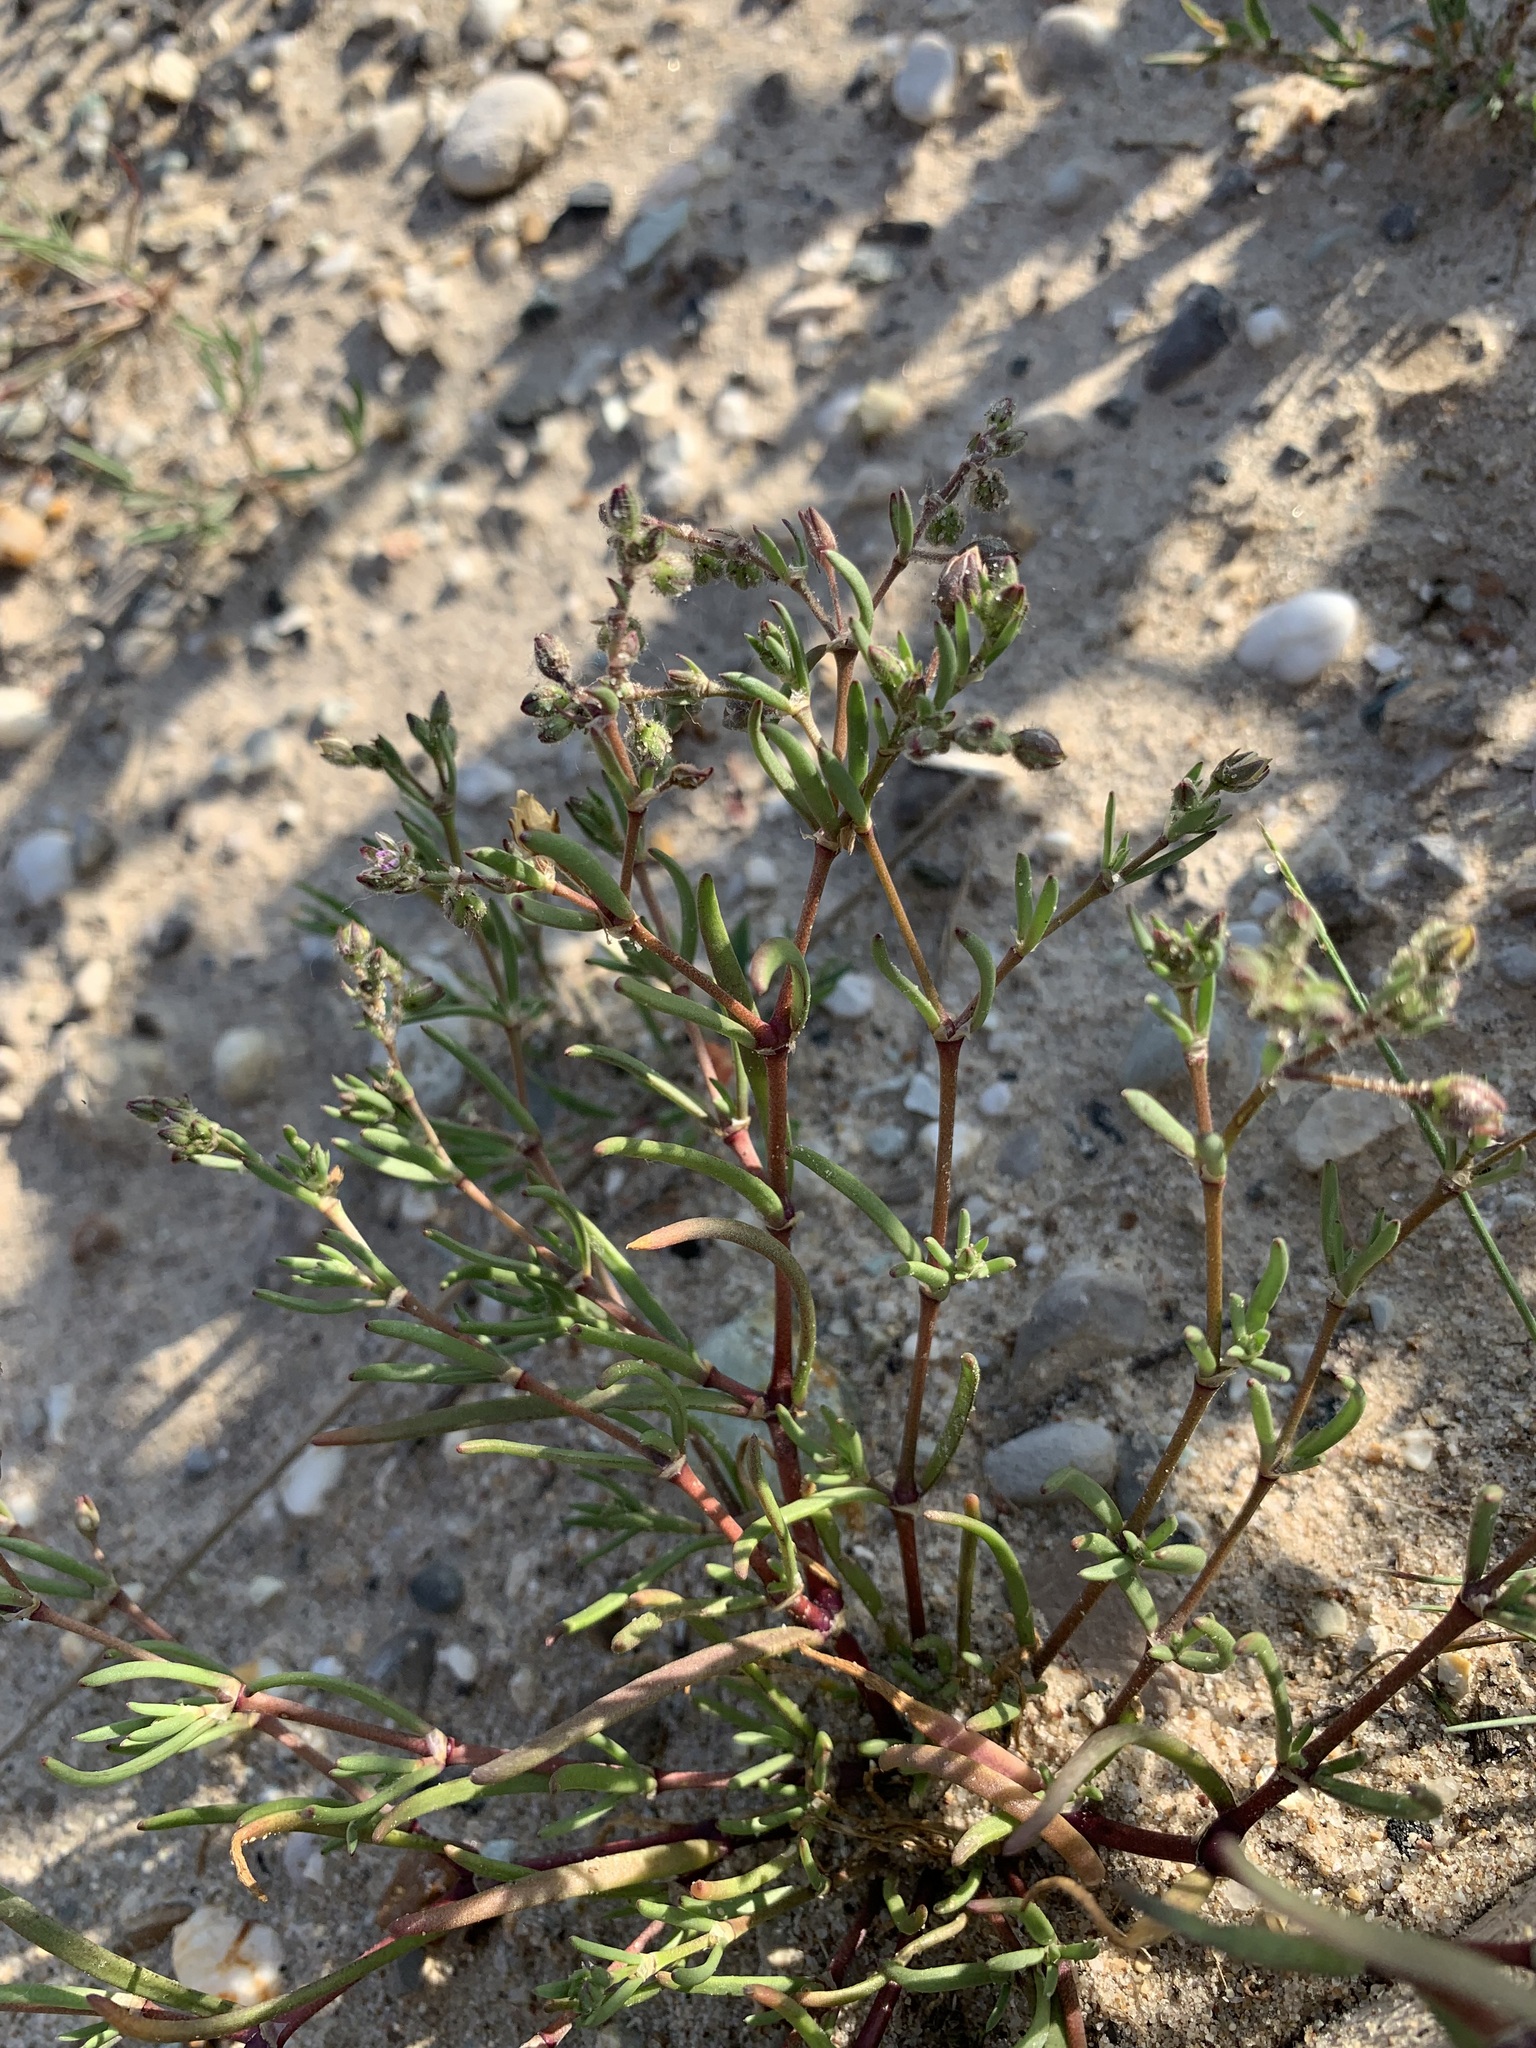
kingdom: Plantae
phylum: Tracheophyta
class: Magnoliopsida
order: Caryophyllales
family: Caryophyllaceae
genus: Spergularia
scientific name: Spergularia marina
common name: Lesser sea-spurrey
